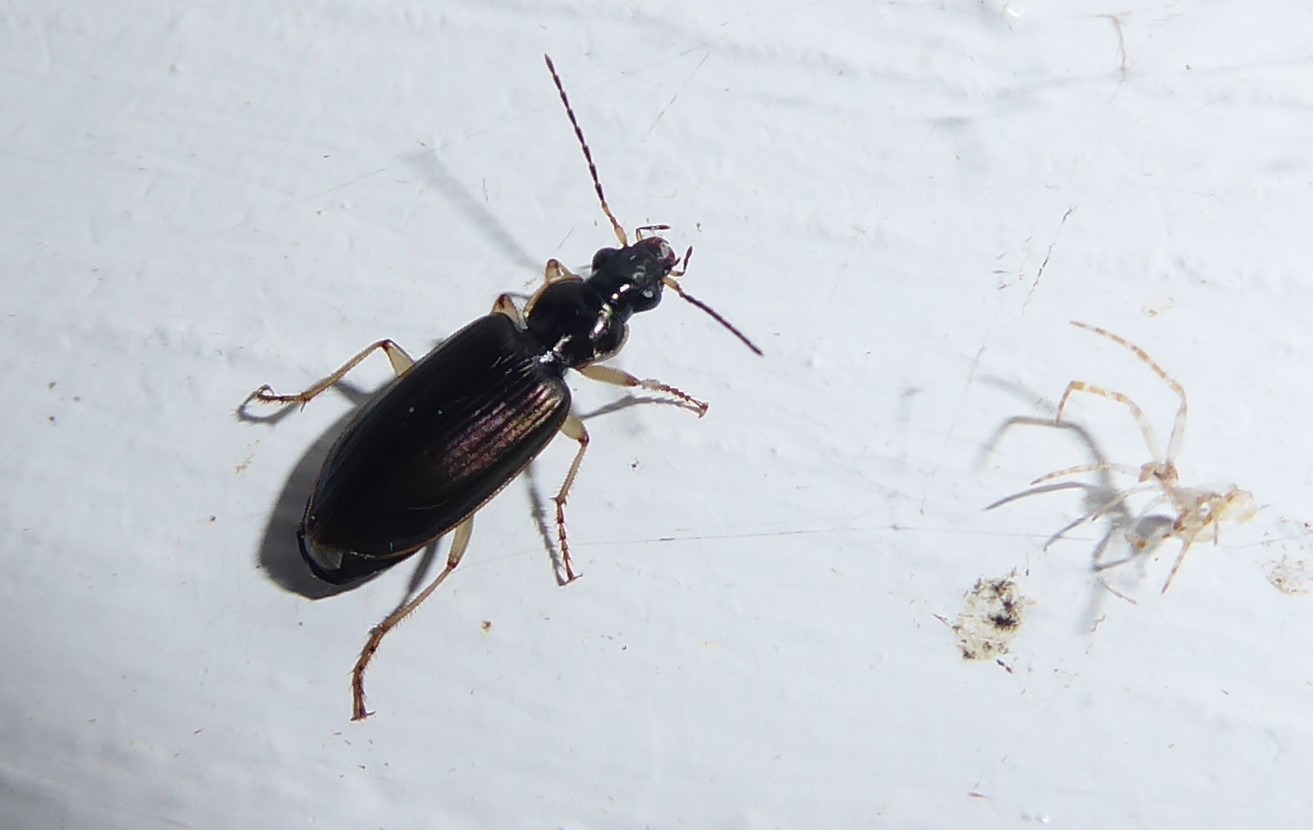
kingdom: Animalia
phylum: Arthropoda
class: Insecta
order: Coleoptera
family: Carabidae
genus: Notagonum
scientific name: Notagonum submetallicum
